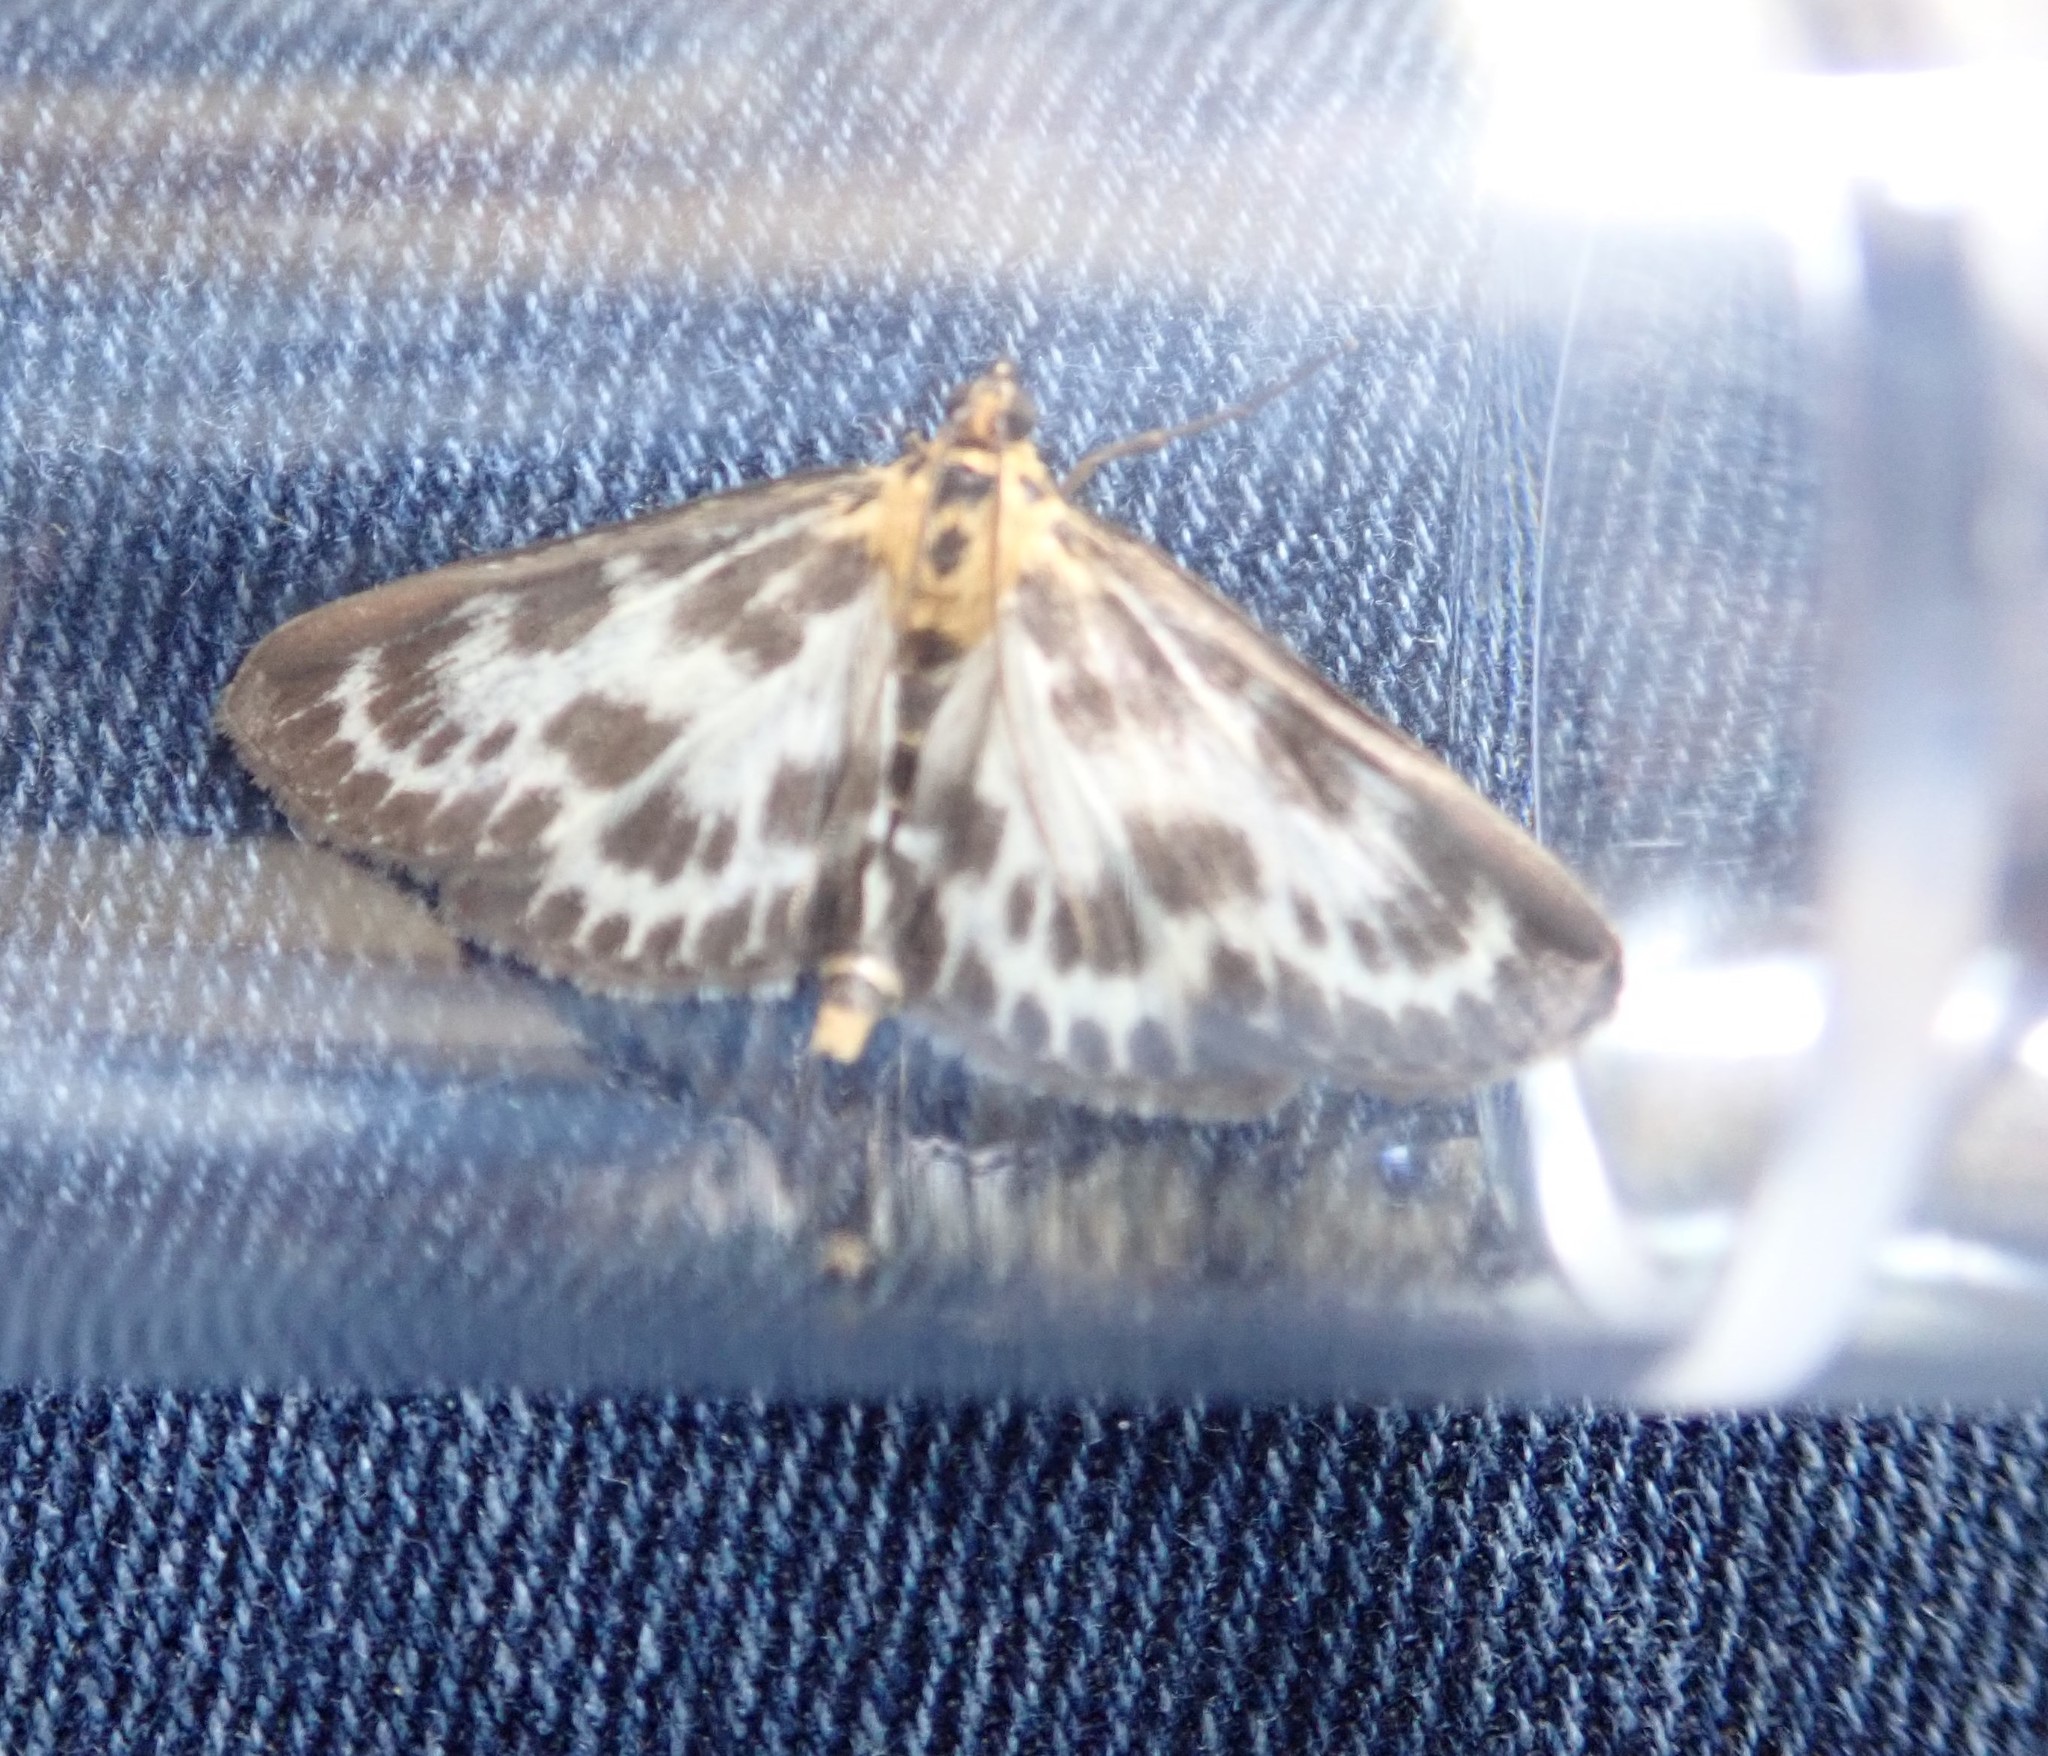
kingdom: Animalia
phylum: Arthropoda
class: Insecta
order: Lepidoptera
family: Crambidae
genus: Anania
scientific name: Anania hortulata
